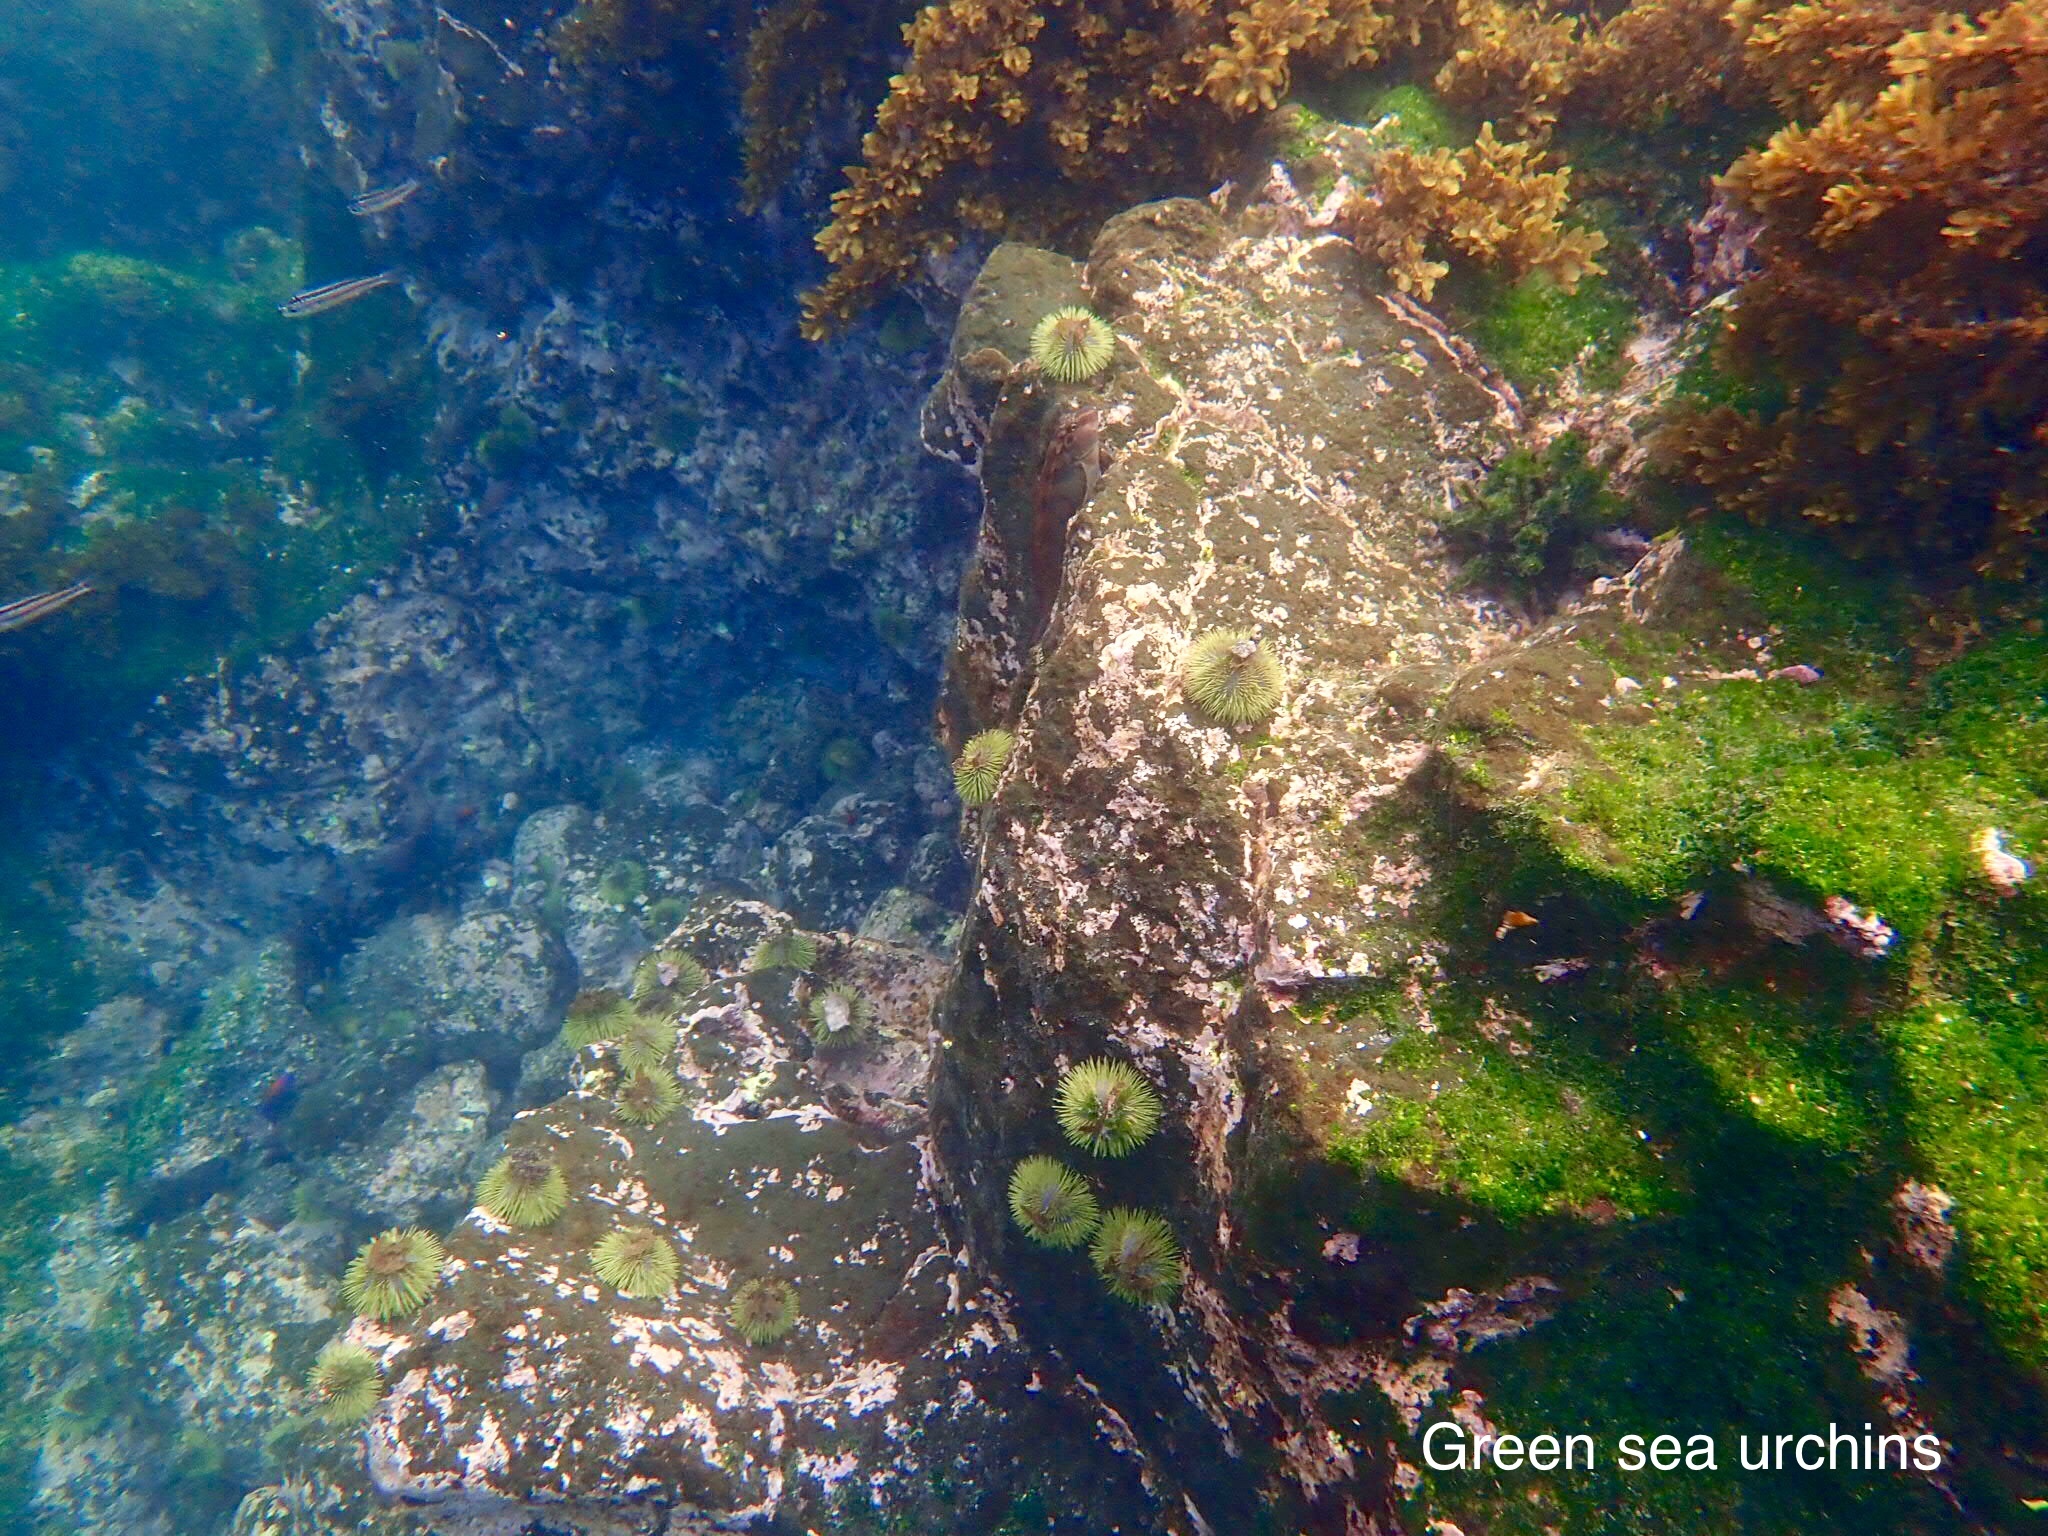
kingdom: Animalia
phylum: Echinodermata
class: Echinoidea
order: Camarodonta
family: Toxopneustidae
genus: Lytechinus
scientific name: Lytechinus semituberculatus
